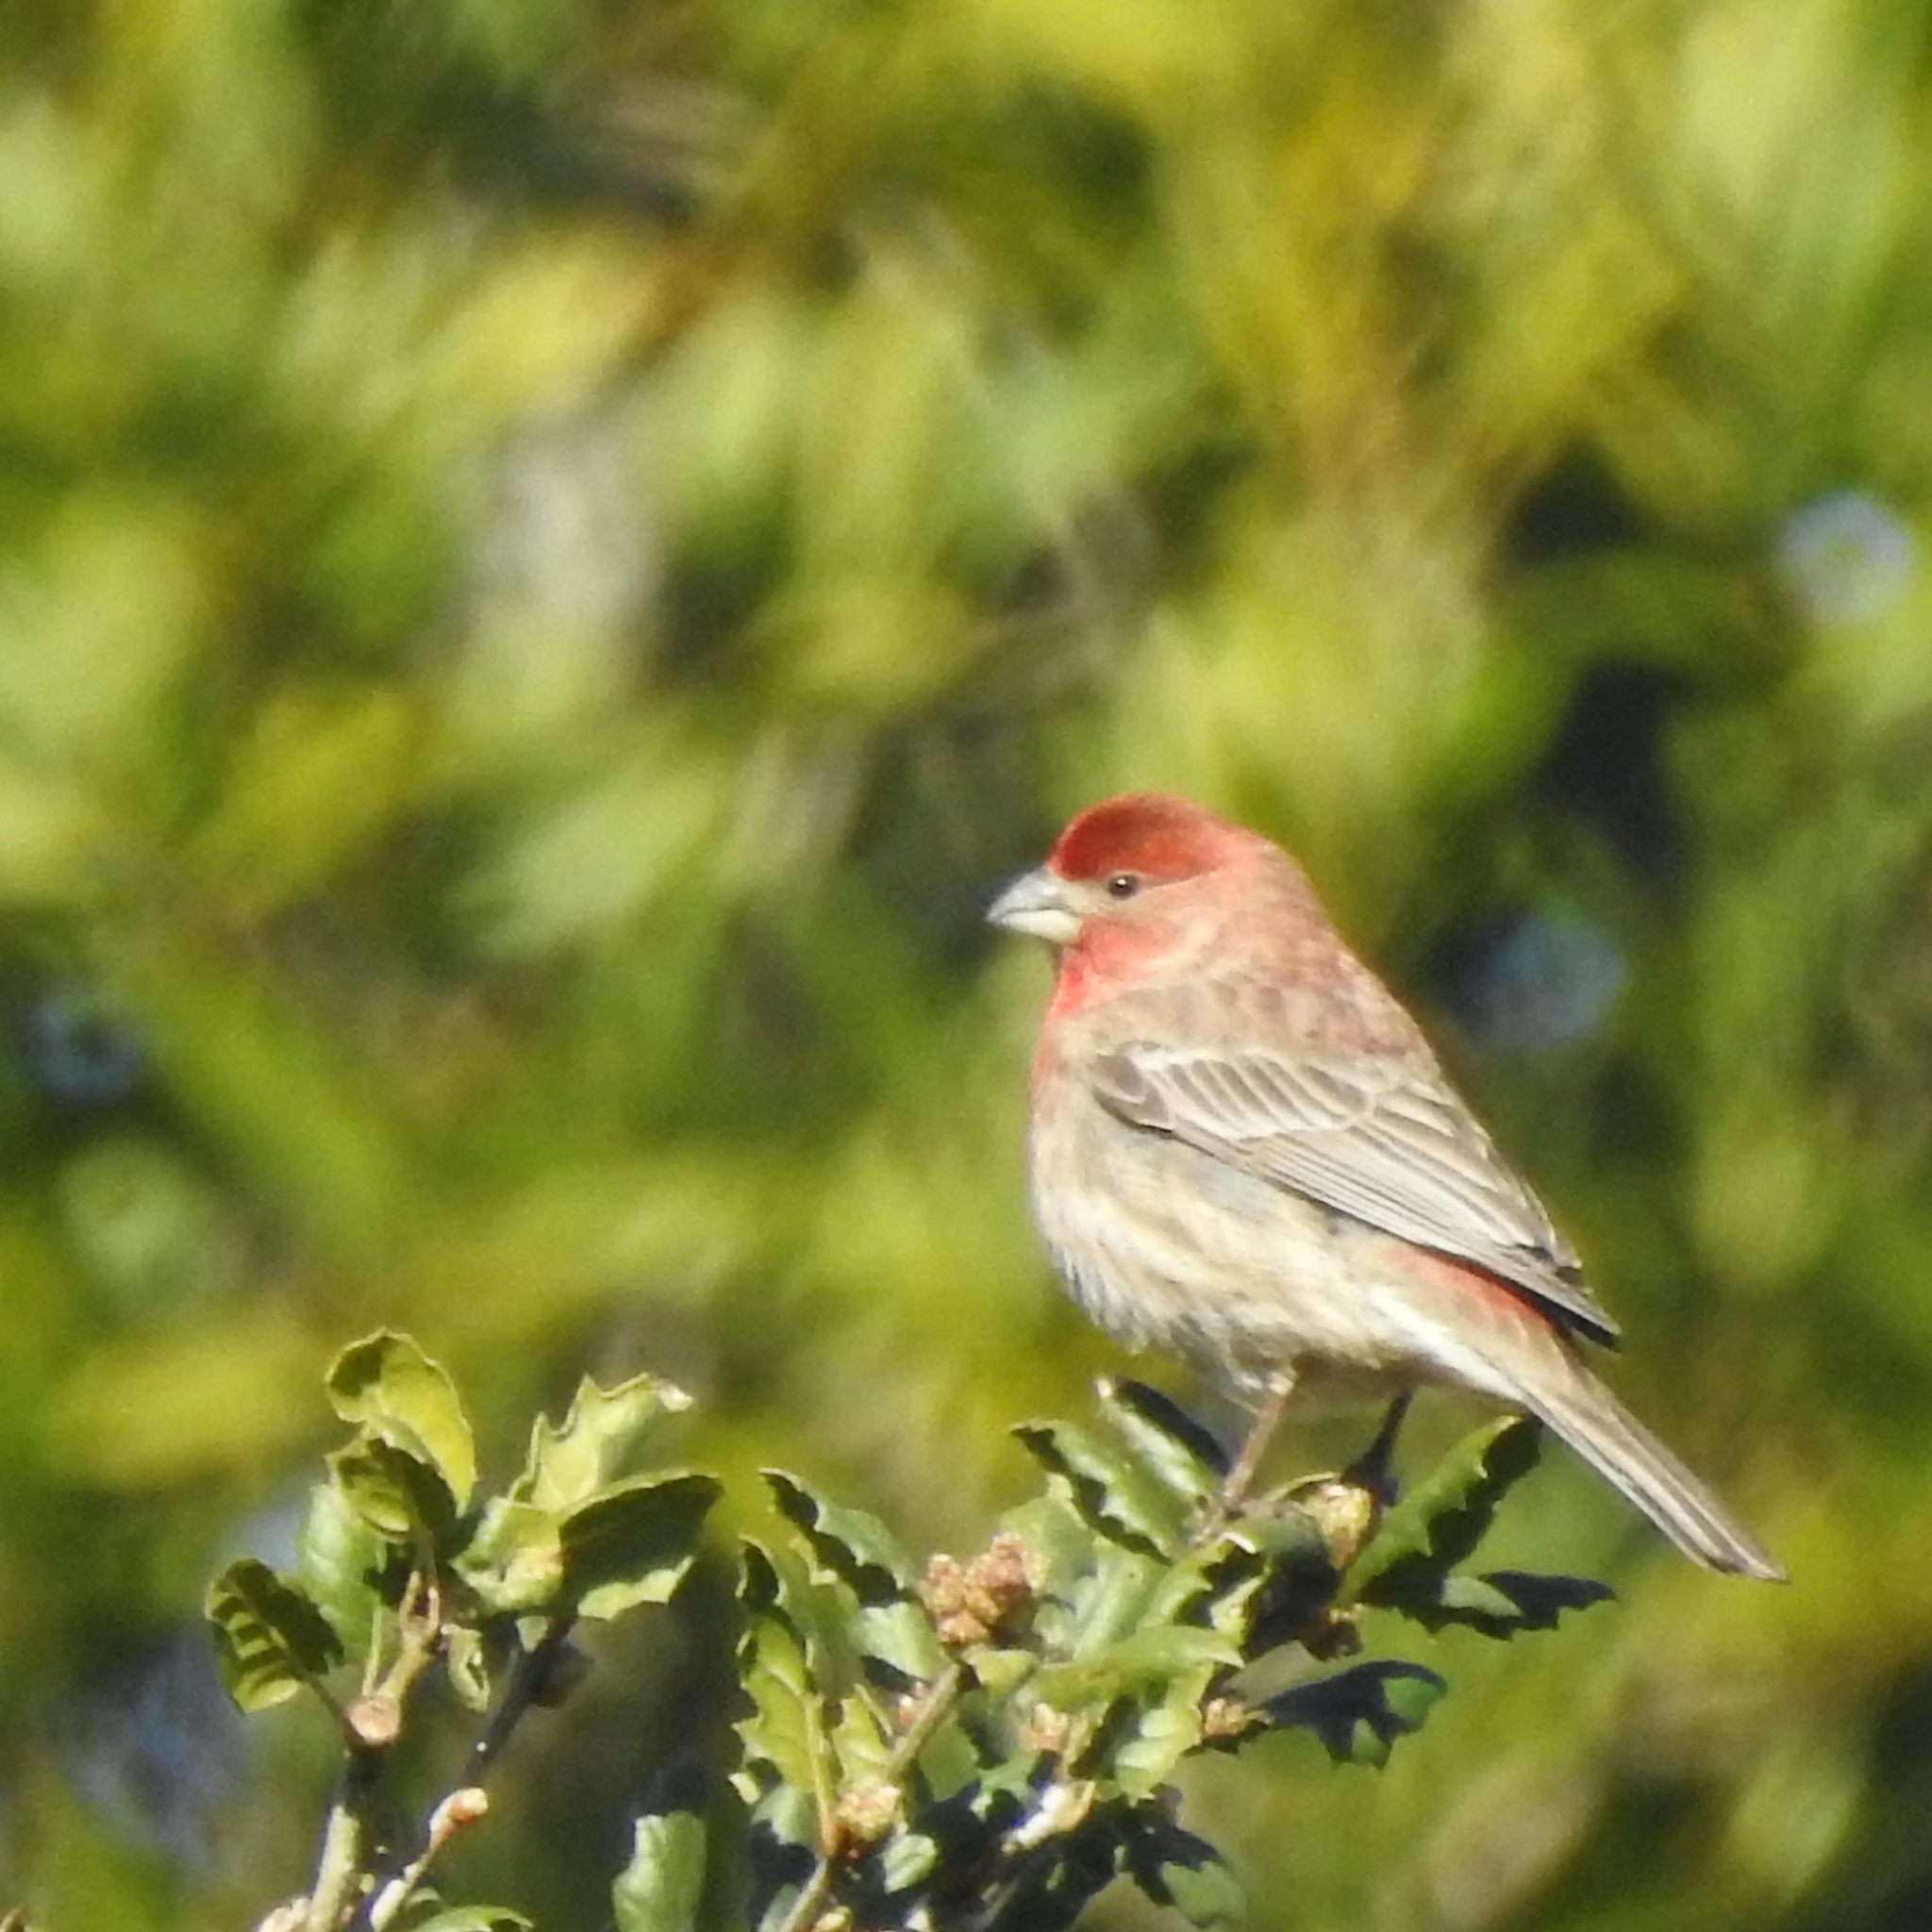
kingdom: Animalia
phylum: Chordata
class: Aves
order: Passeriformes
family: Fringillidae
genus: Haemorhous
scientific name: Haemorhous mexicanus
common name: House finch
